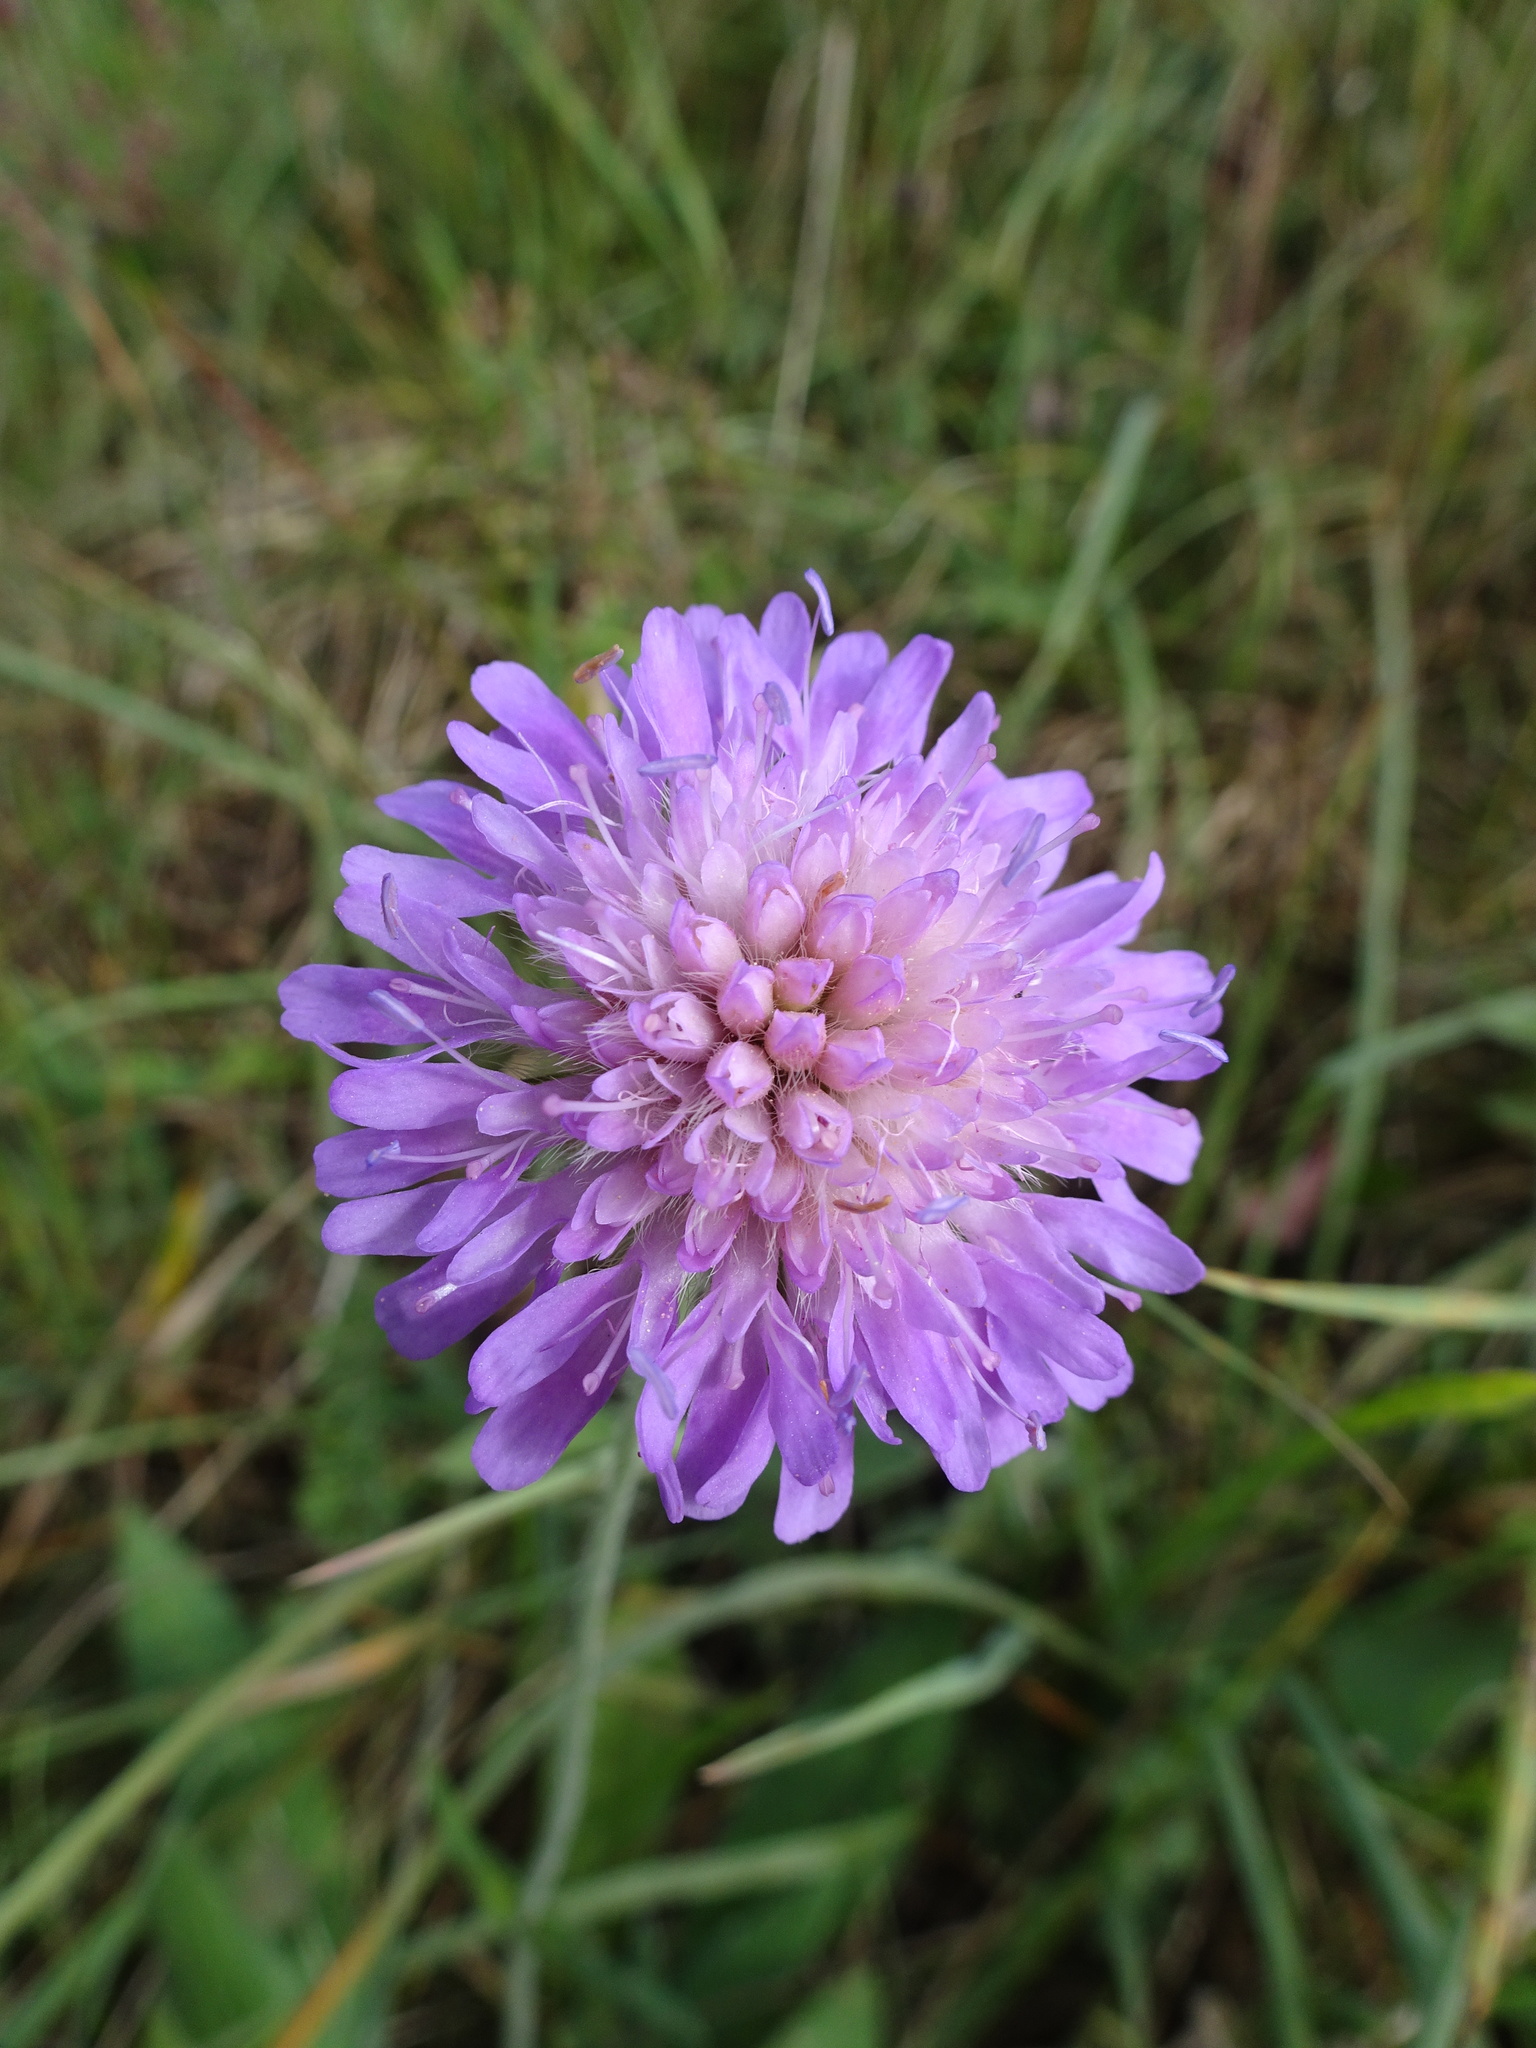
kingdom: Plantae
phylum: Tracheophyta
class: Magnoliopsida
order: Dipsacales
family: Caprifoliaceae
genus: Knautia
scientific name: Knautia arvensis
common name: Field scabiosa
